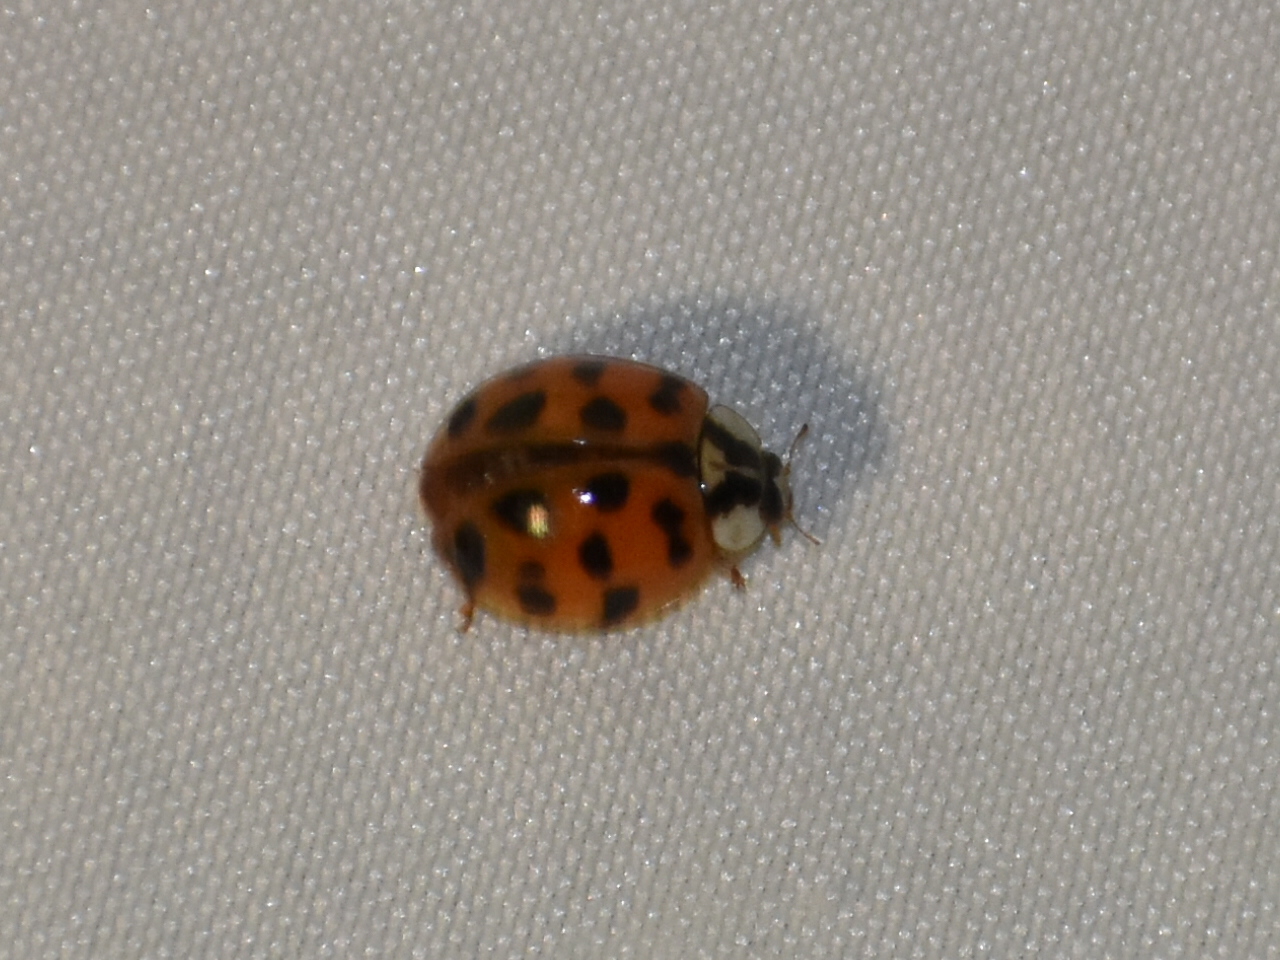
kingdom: Animalia
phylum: Arthropoda
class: Insecta
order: Coleoptera
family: Coccinellidae
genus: Harmonia
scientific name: Harmonia axyridis
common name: Harlequin ladybird
